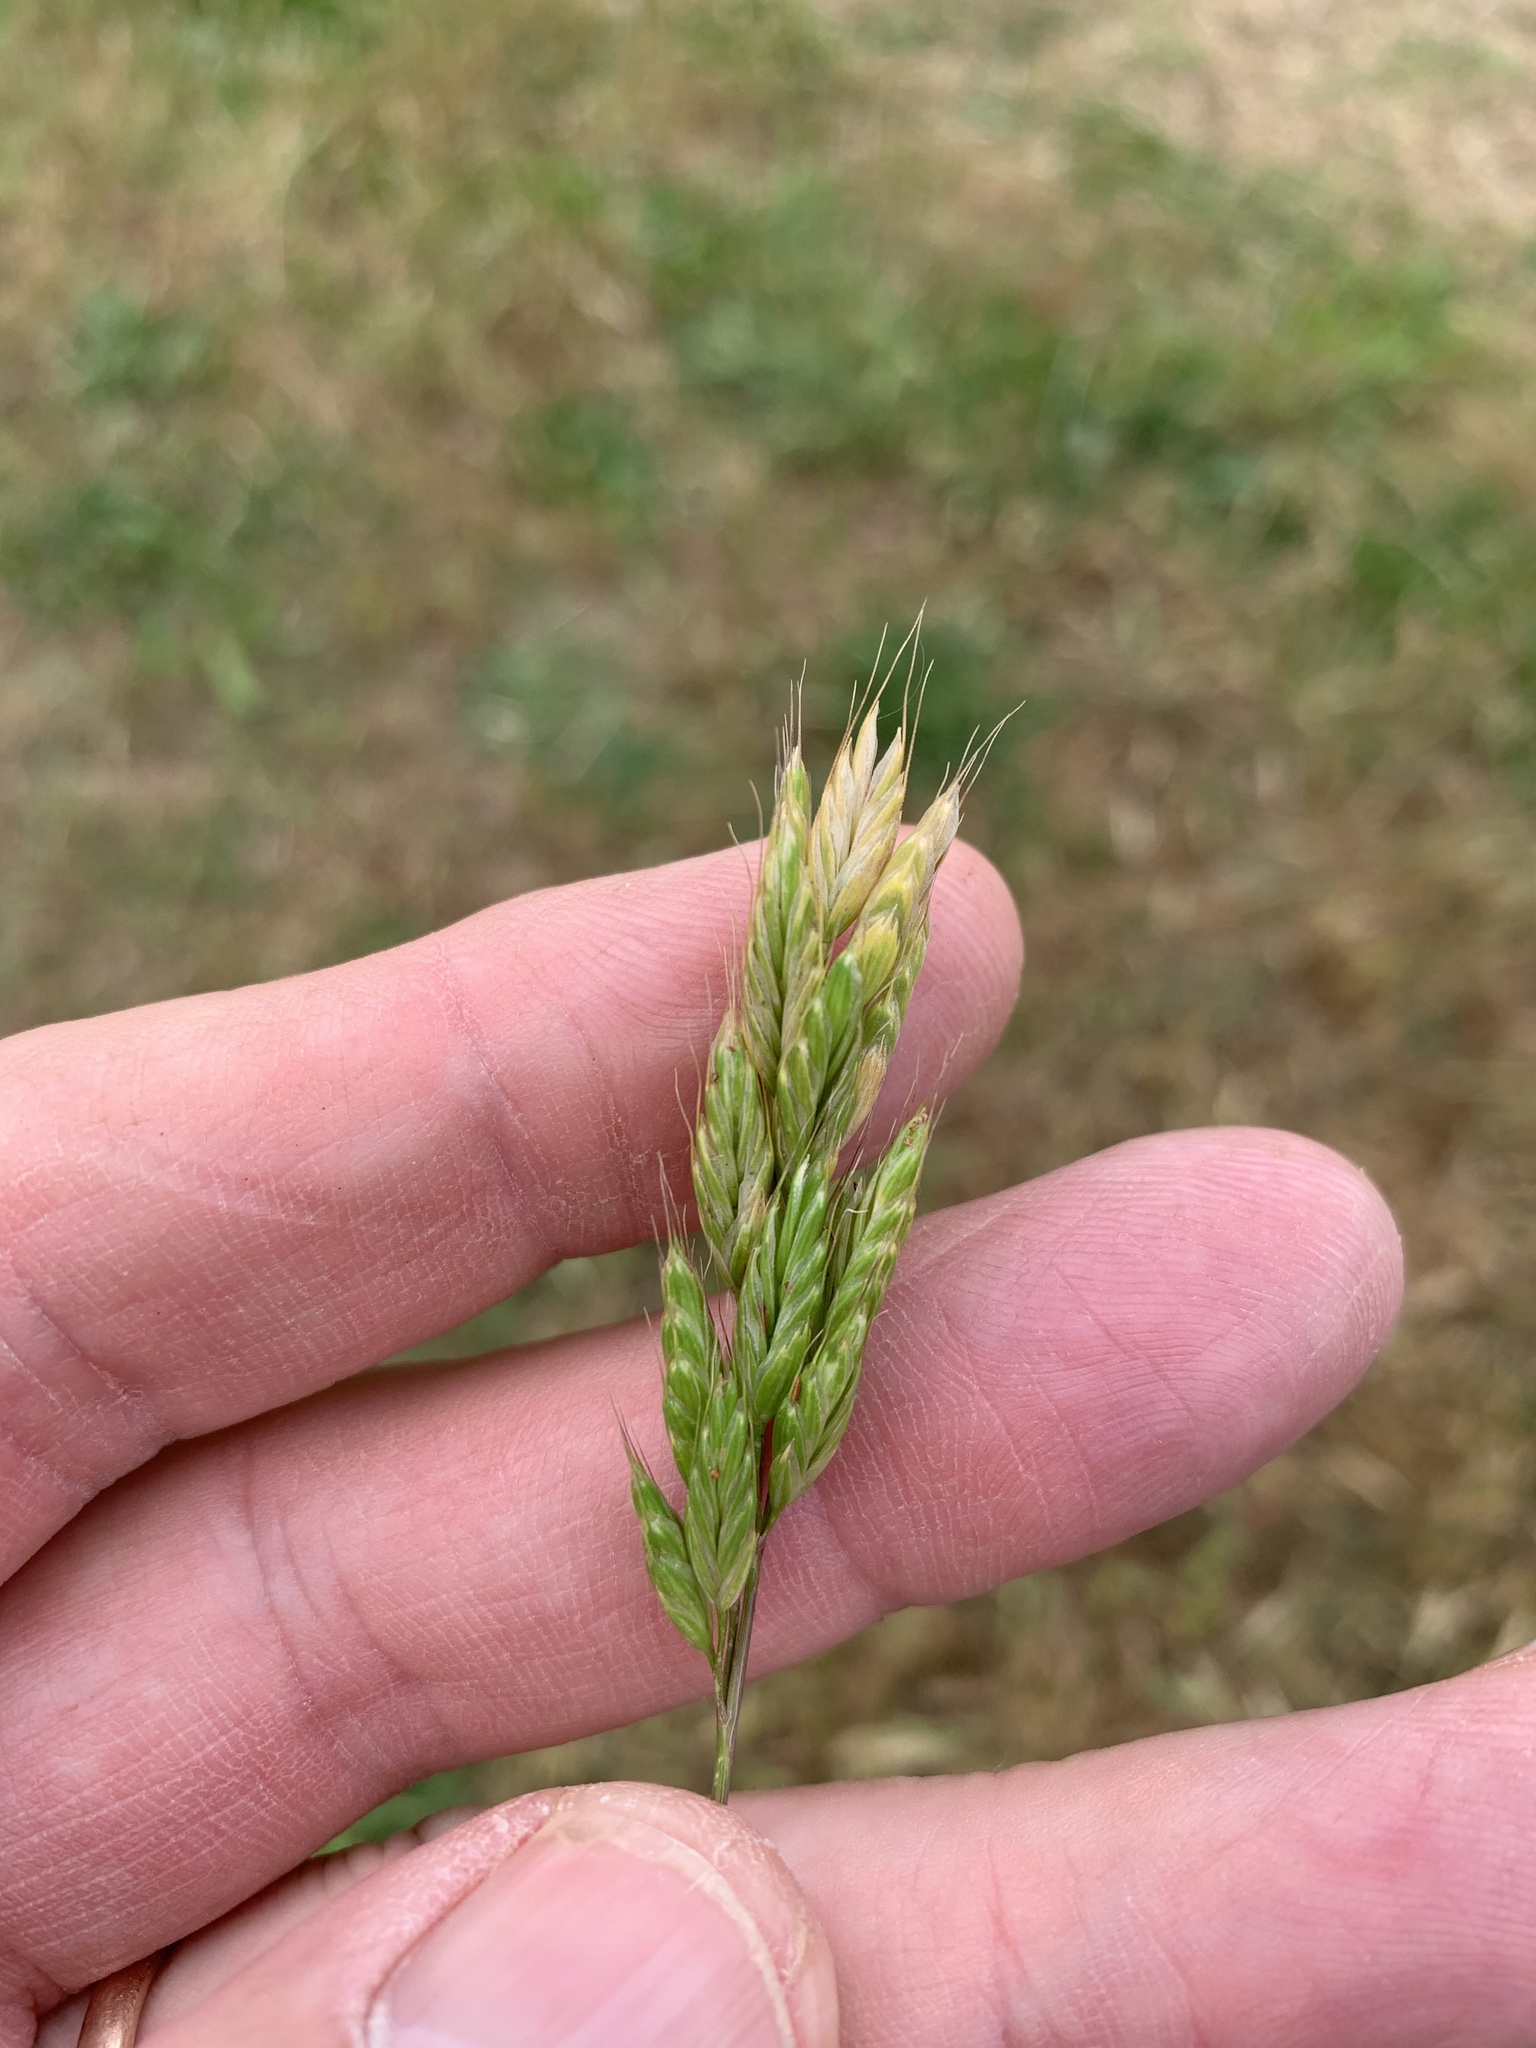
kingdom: Plantae
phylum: Tracheophyta
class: Liliopsida
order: Poales
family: Poaceae
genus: Bromus
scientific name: Bromus hordeaceus
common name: Soft brome
